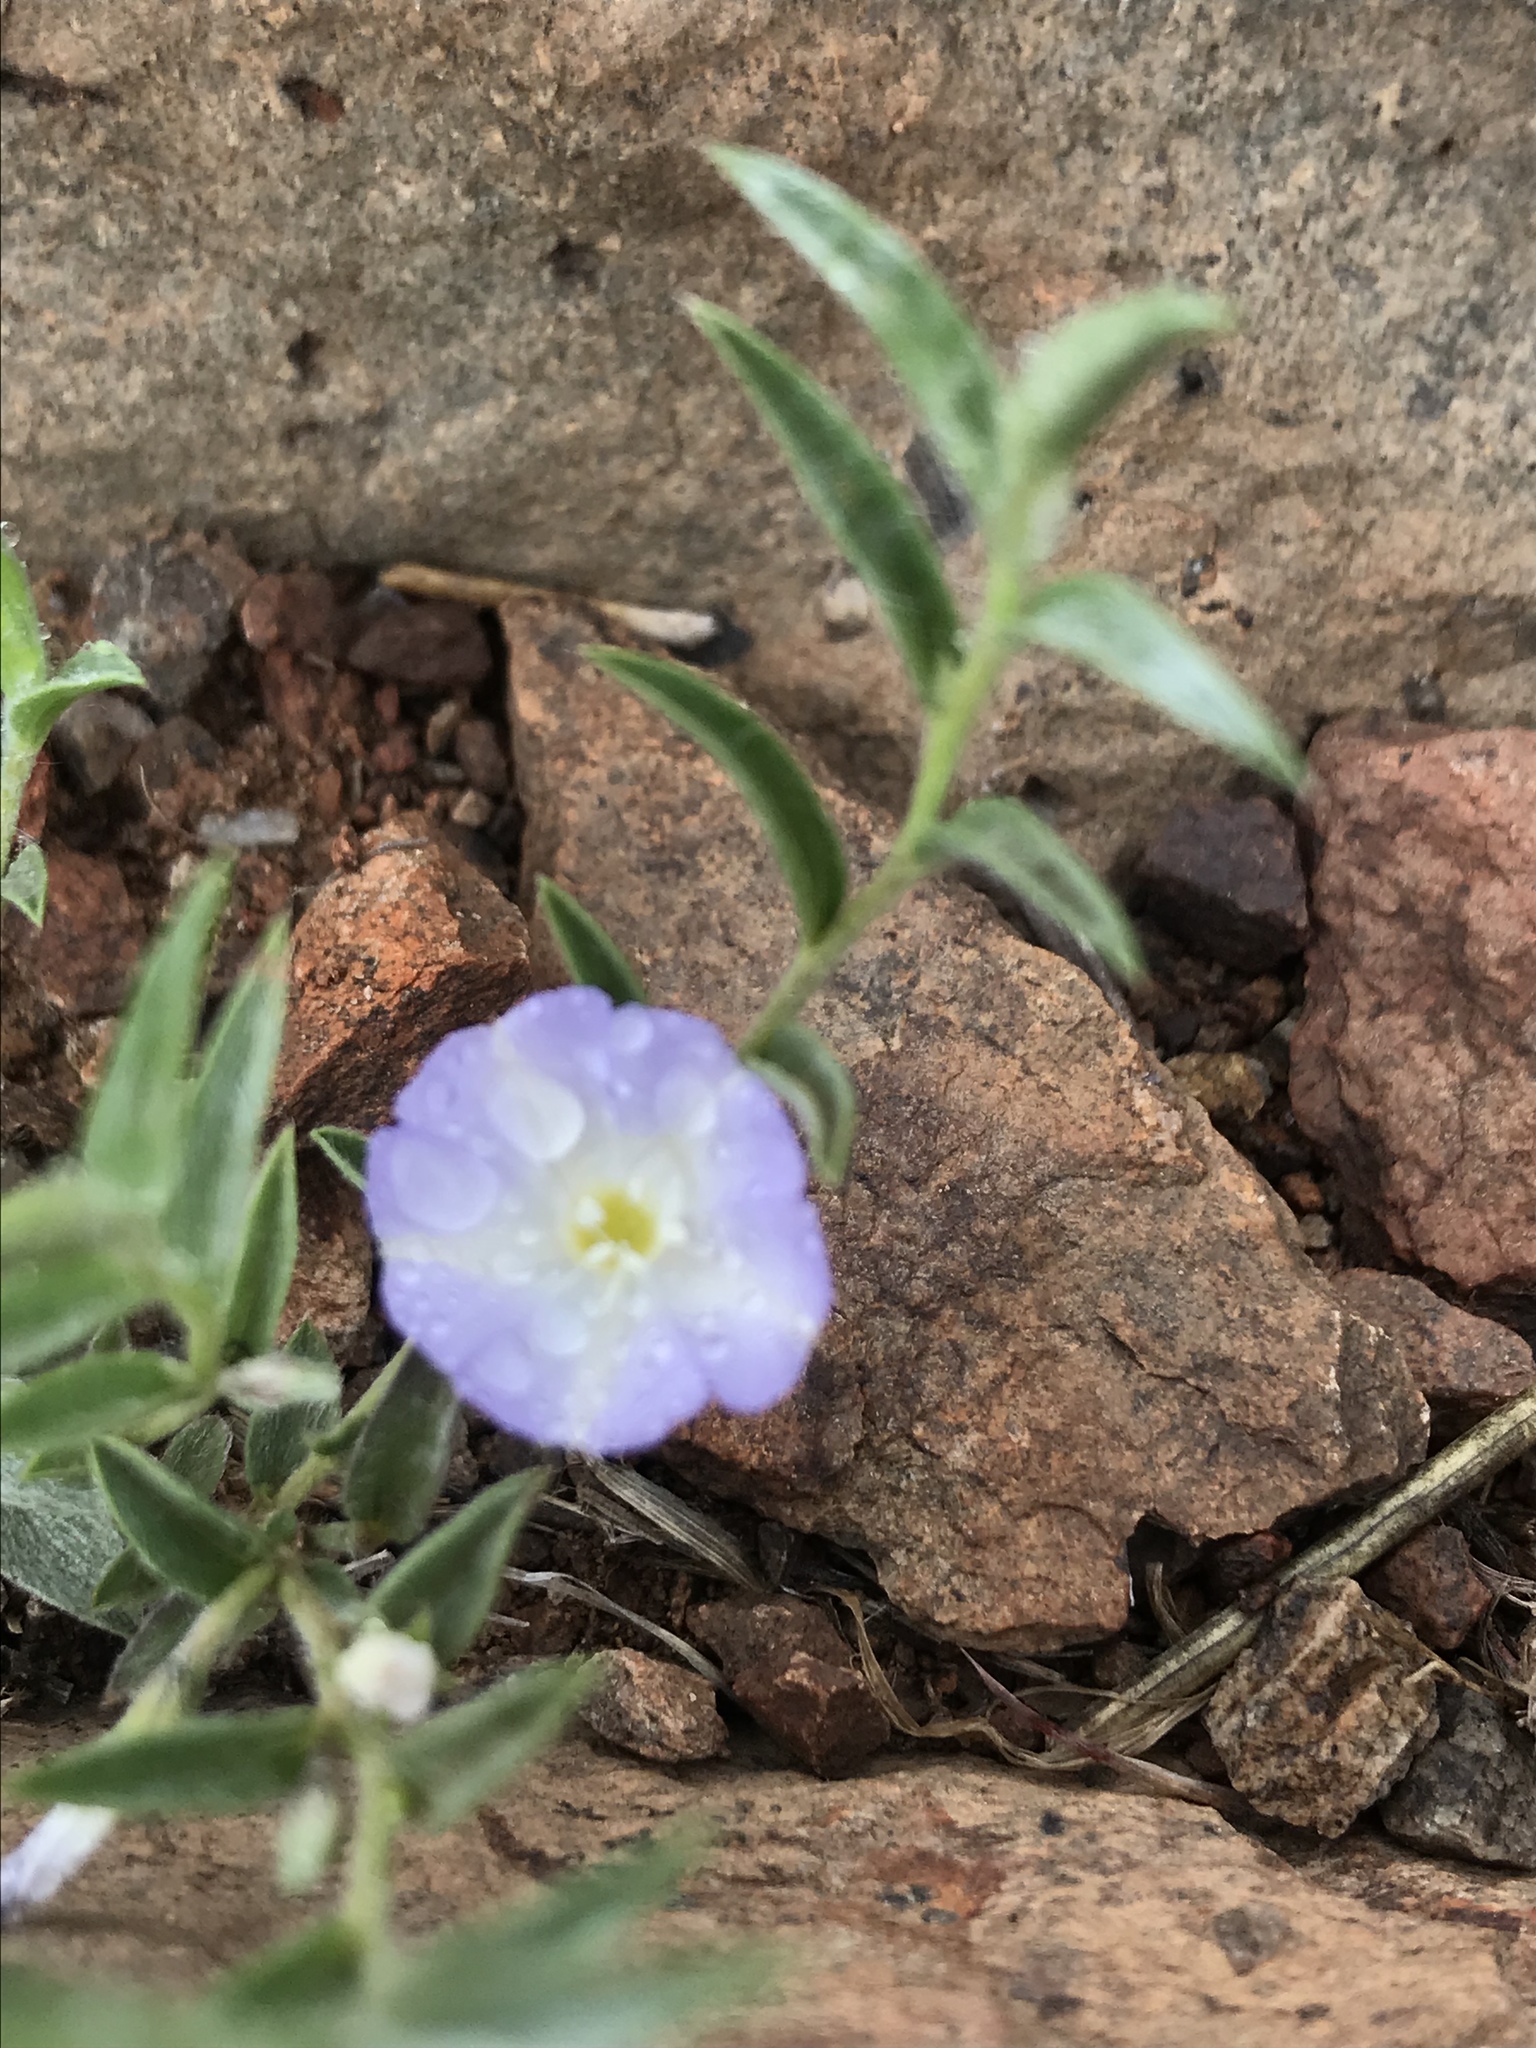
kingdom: Plantae
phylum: Tracheophyta
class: Magnoliopsida
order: Solanales
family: Convolvulaceae
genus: Evolvulus
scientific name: Evolvulus nuttallianus
